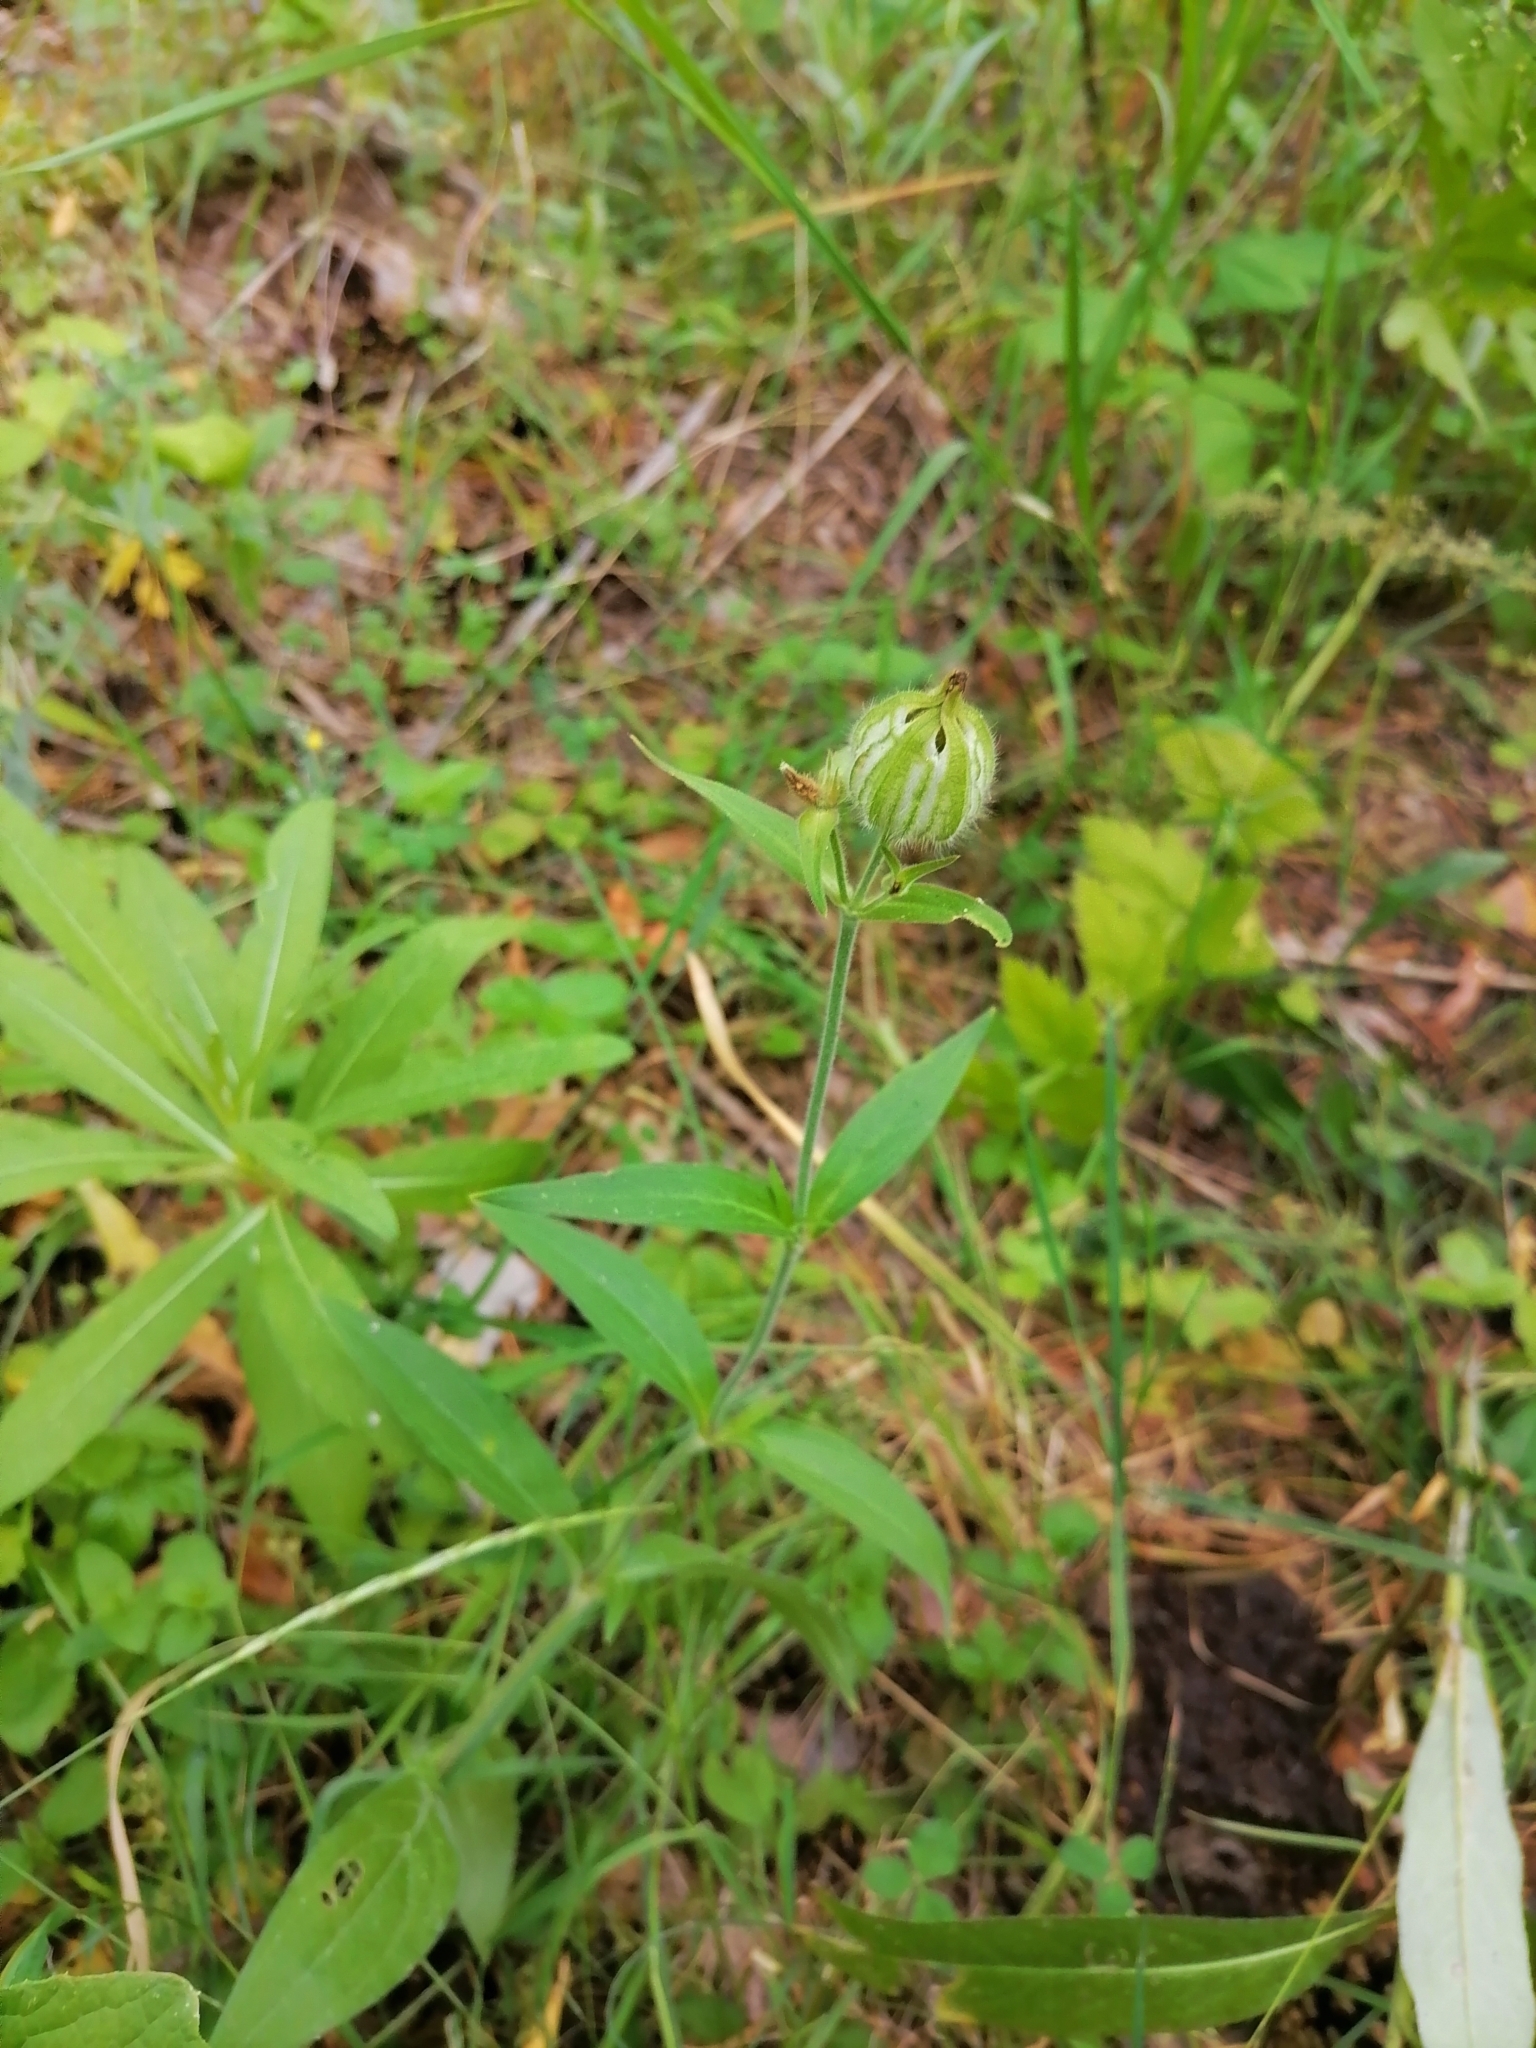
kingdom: Plantae
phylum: Tracheophyta
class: Magnoliopsida
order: Caryophyllales
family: Caryophyllaceae
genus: Silene
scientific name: Silene latifolia
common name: White campion
